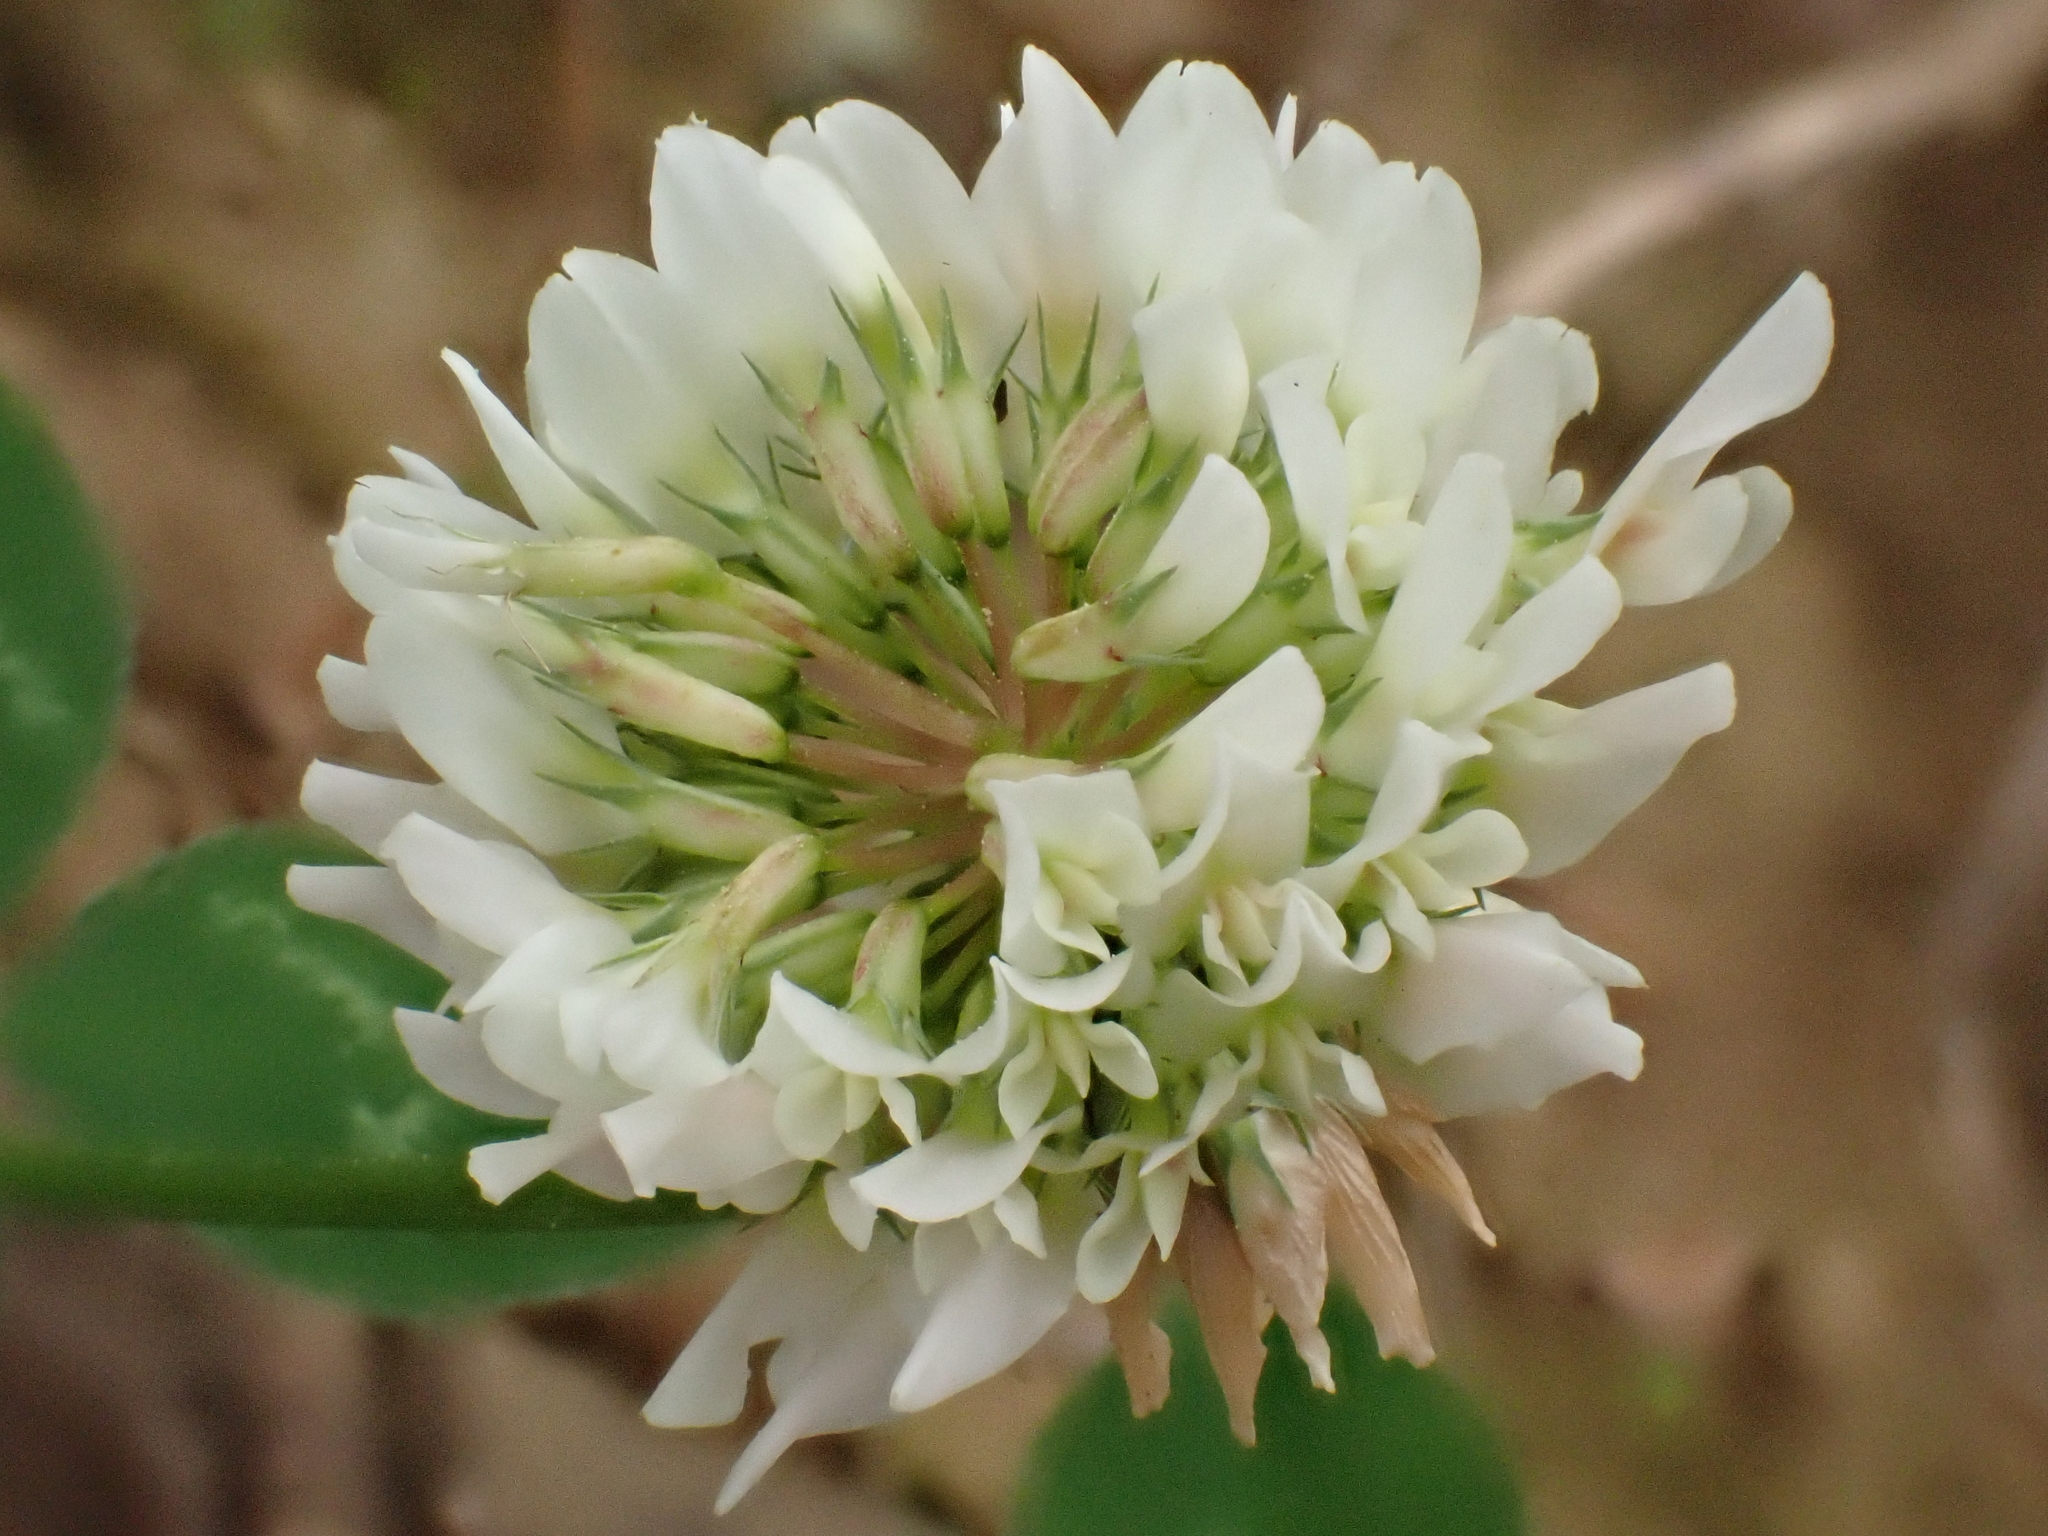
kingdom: Plantae
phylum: Tracheophyta
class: Magnoliopsida
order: Fabales
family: Fabaceae
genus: Trifolium
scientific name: Trifolium repens
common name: White clover
